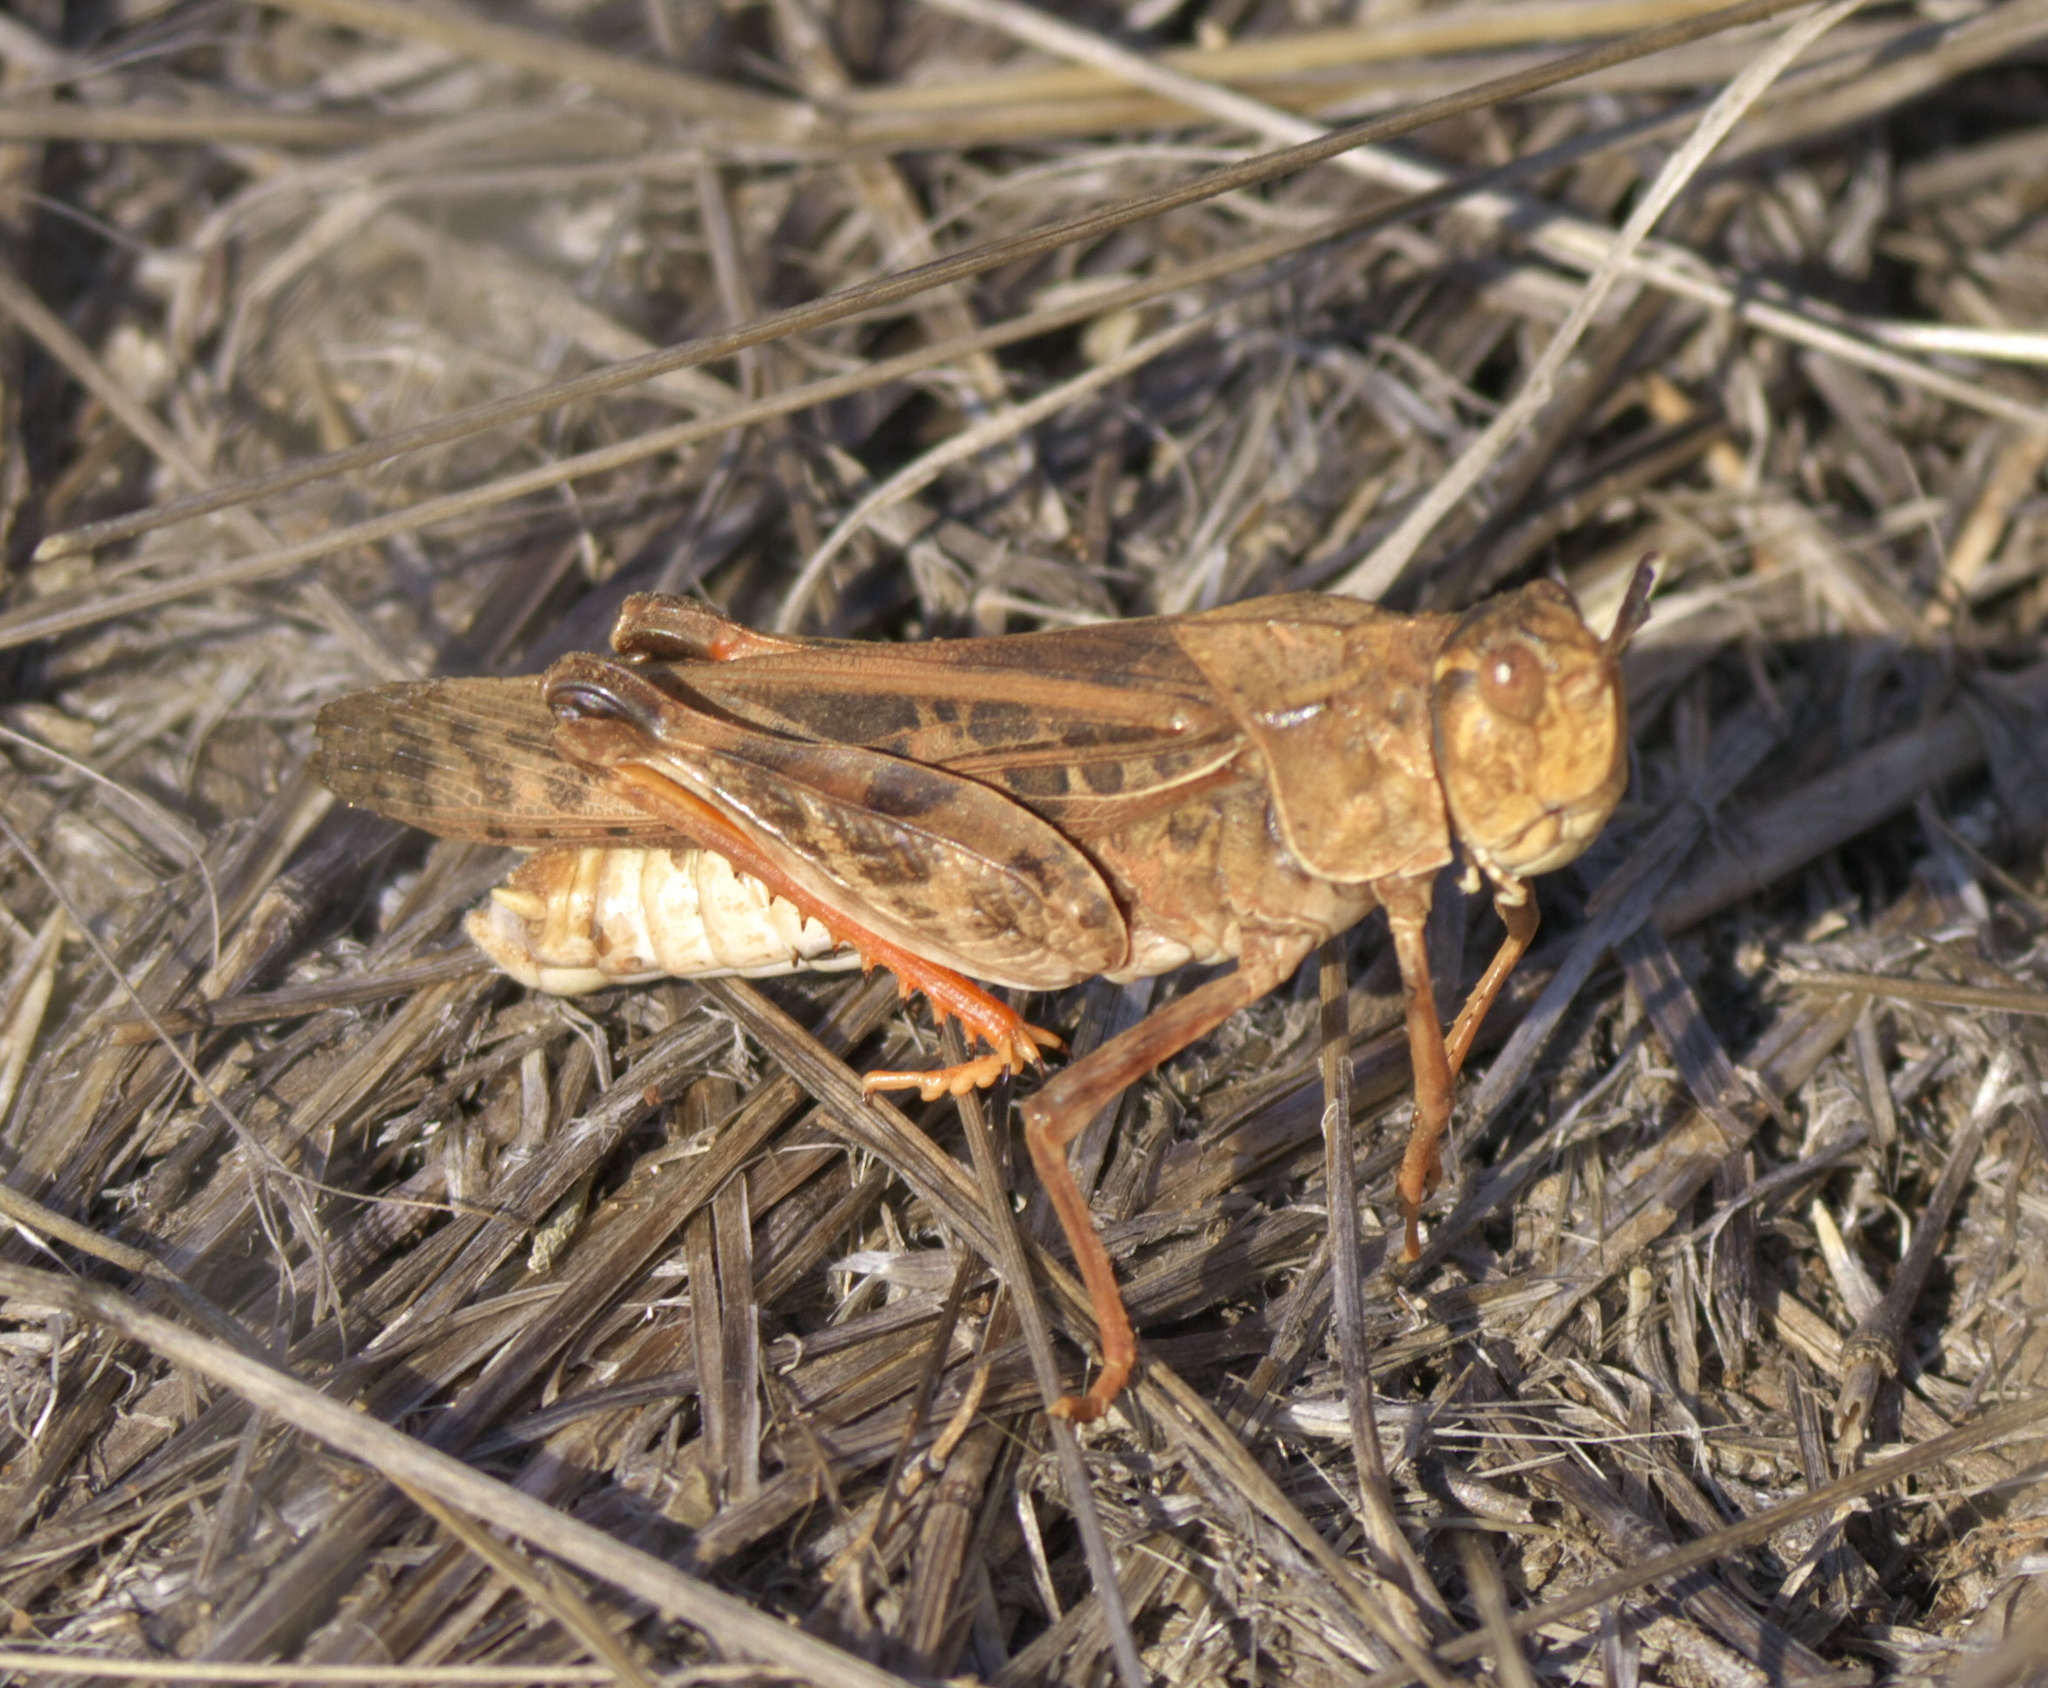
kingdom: Animalia
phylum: Arthropoda
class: Insecta
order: Orthoptera
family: Acrididae
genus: Pardalophora
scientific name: Pardalophora haldemanii
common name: Haldeman's locust
